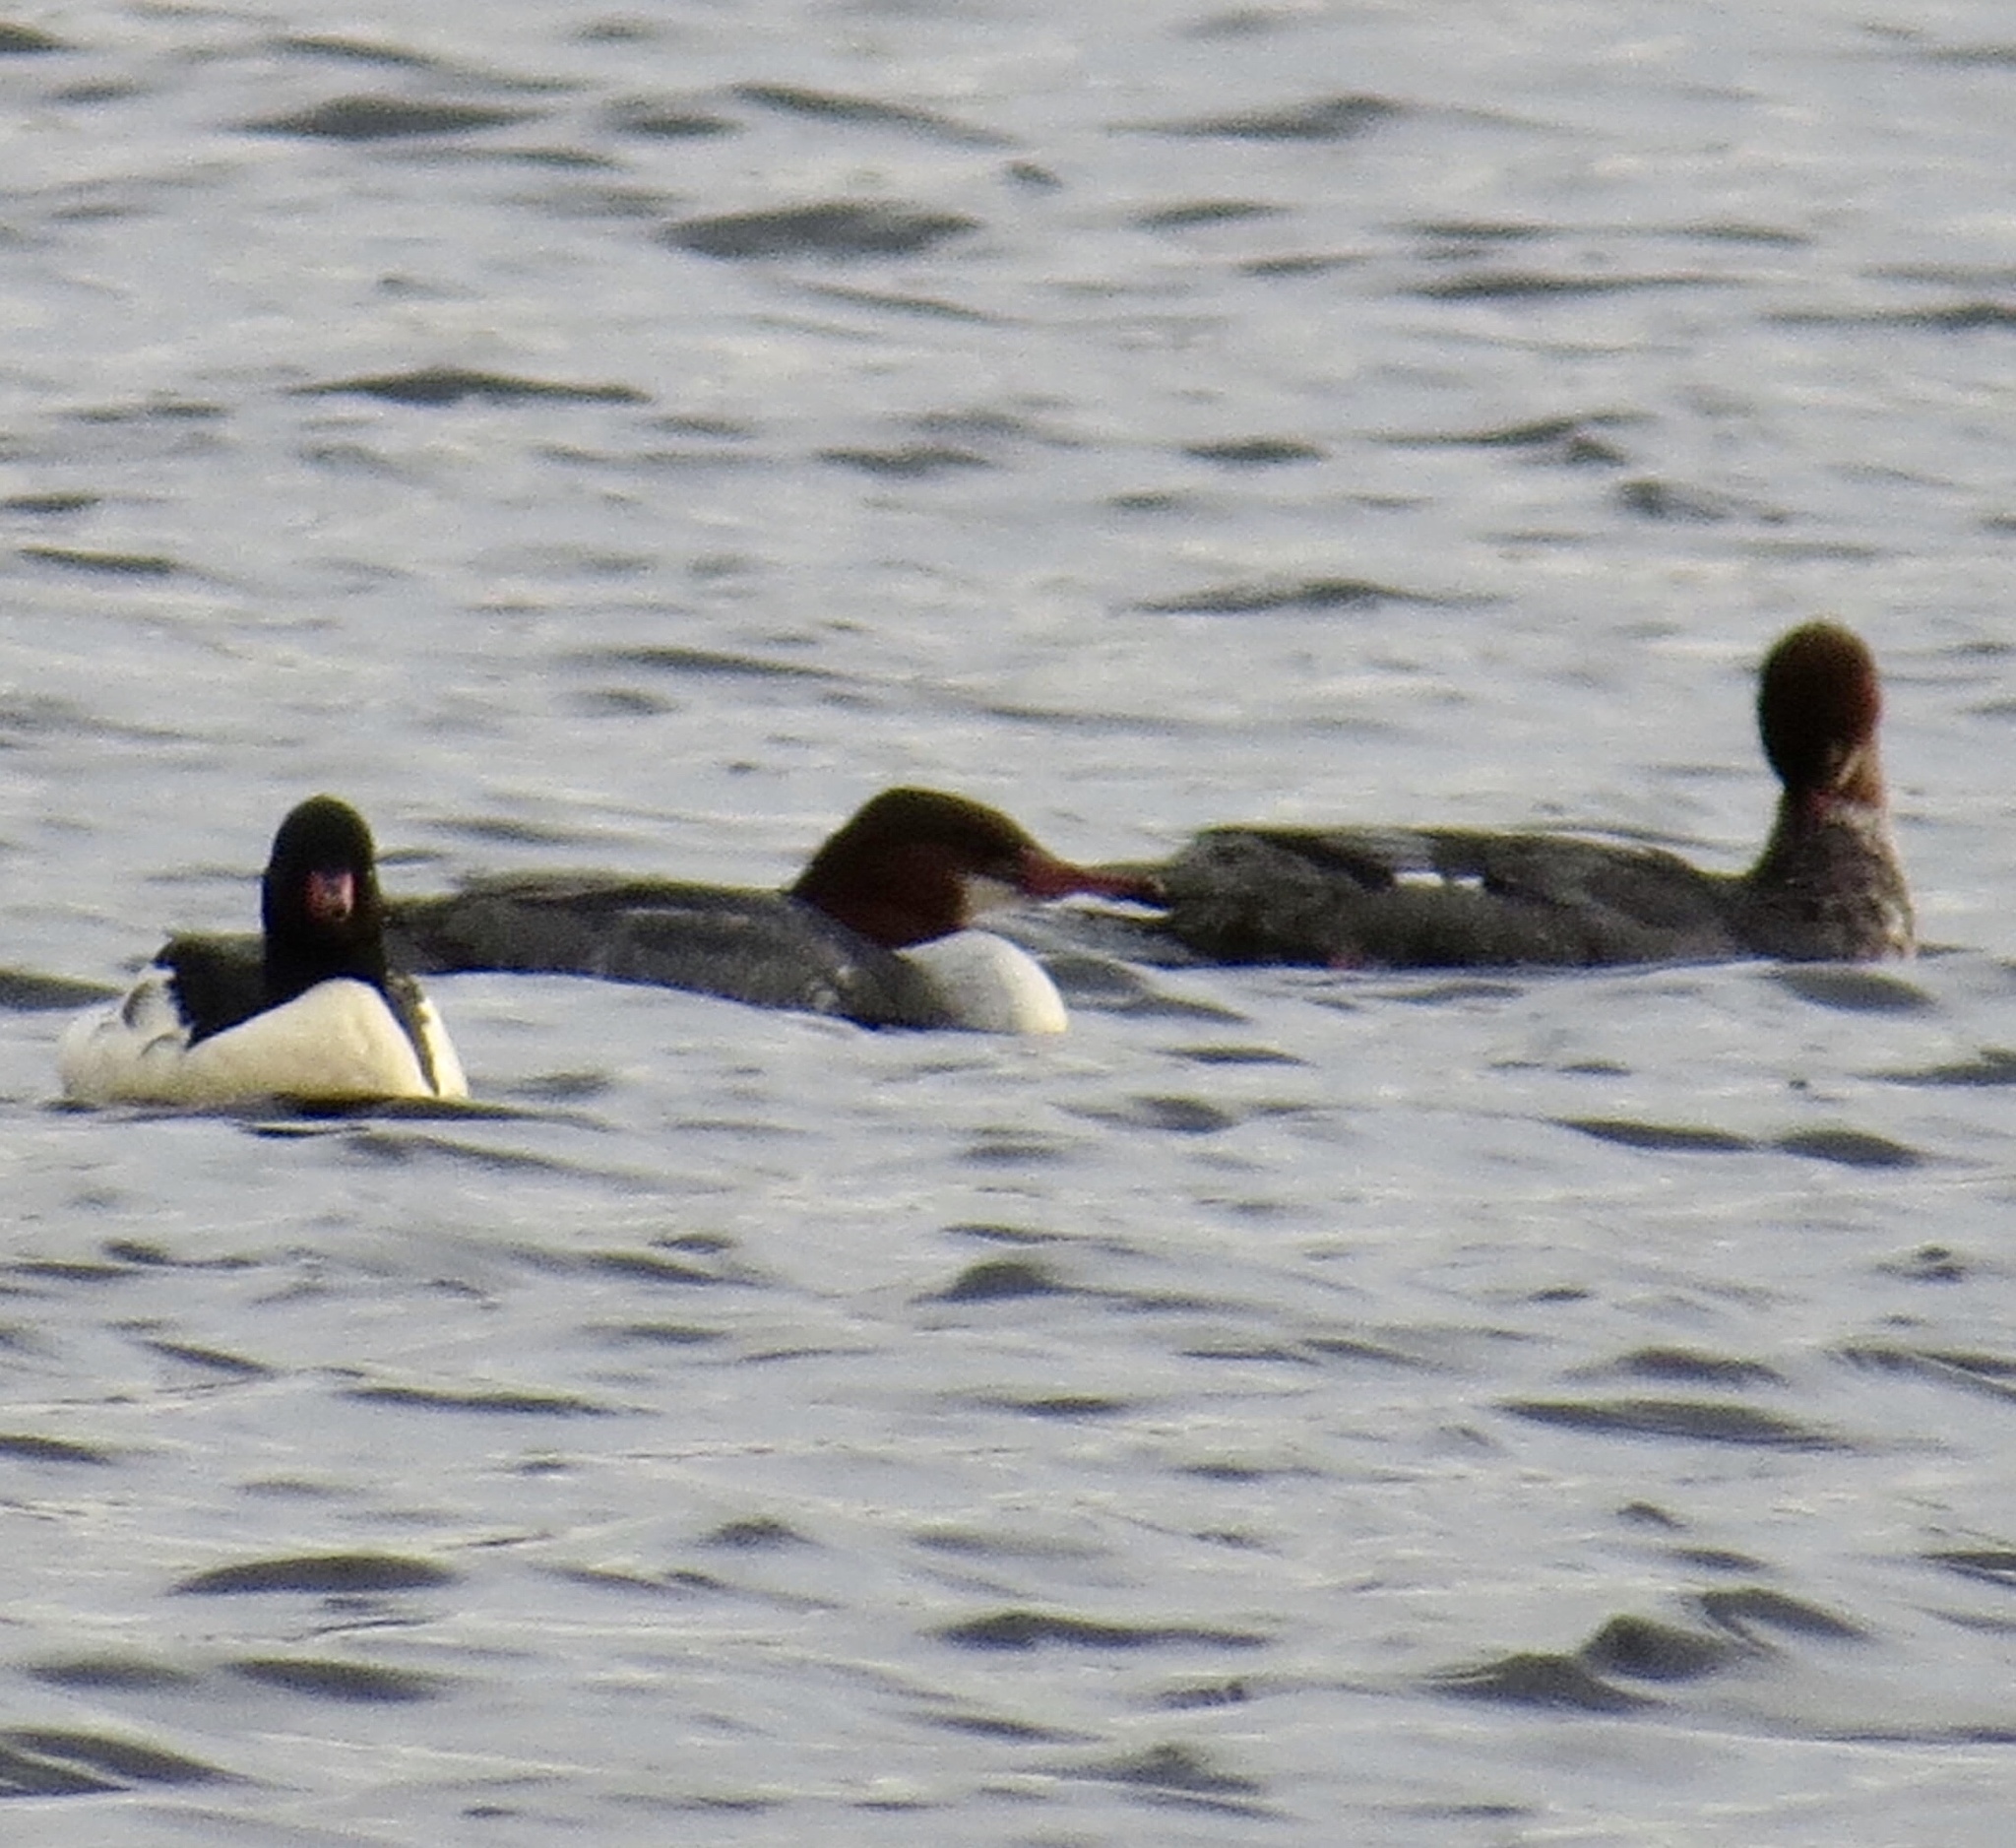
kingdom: Animalia
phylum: Chordata
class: Aves
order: Anseriformes
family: Anatidae
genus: Mergus
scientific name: Mergus merganser
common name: Common merganser
